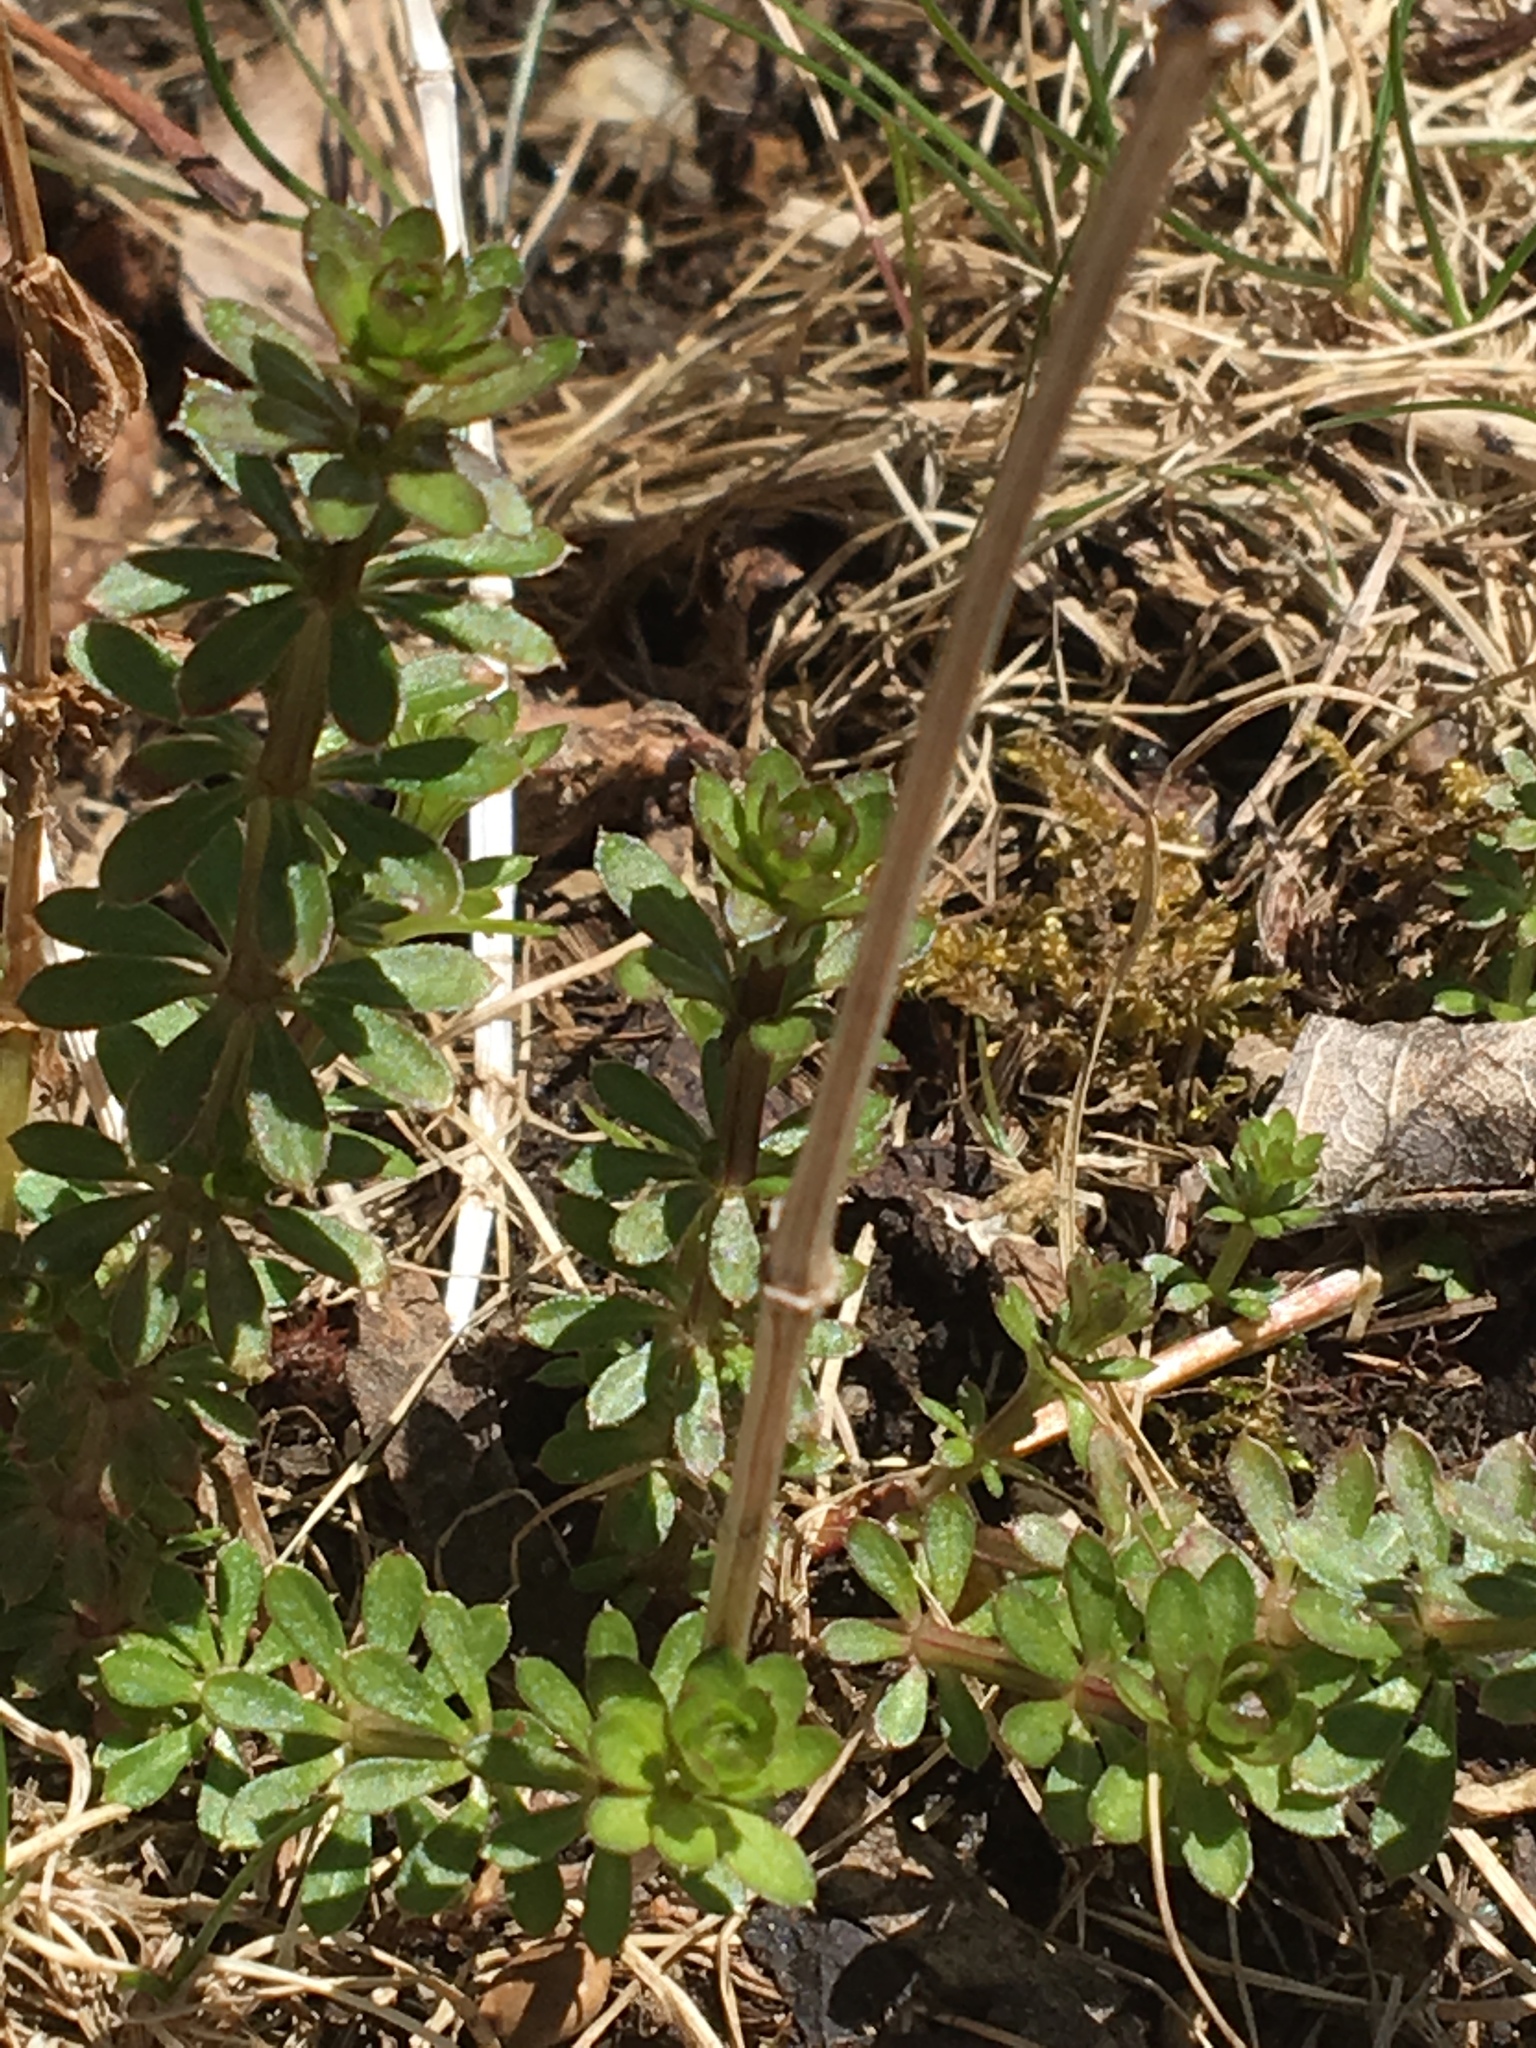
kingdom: Plantae
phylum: Tracheophyta
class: Magnoliopsida
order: Gentianales
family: Rubiaceae
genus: Galium
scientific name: Galium mollugo
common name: Hedge bedstraw
